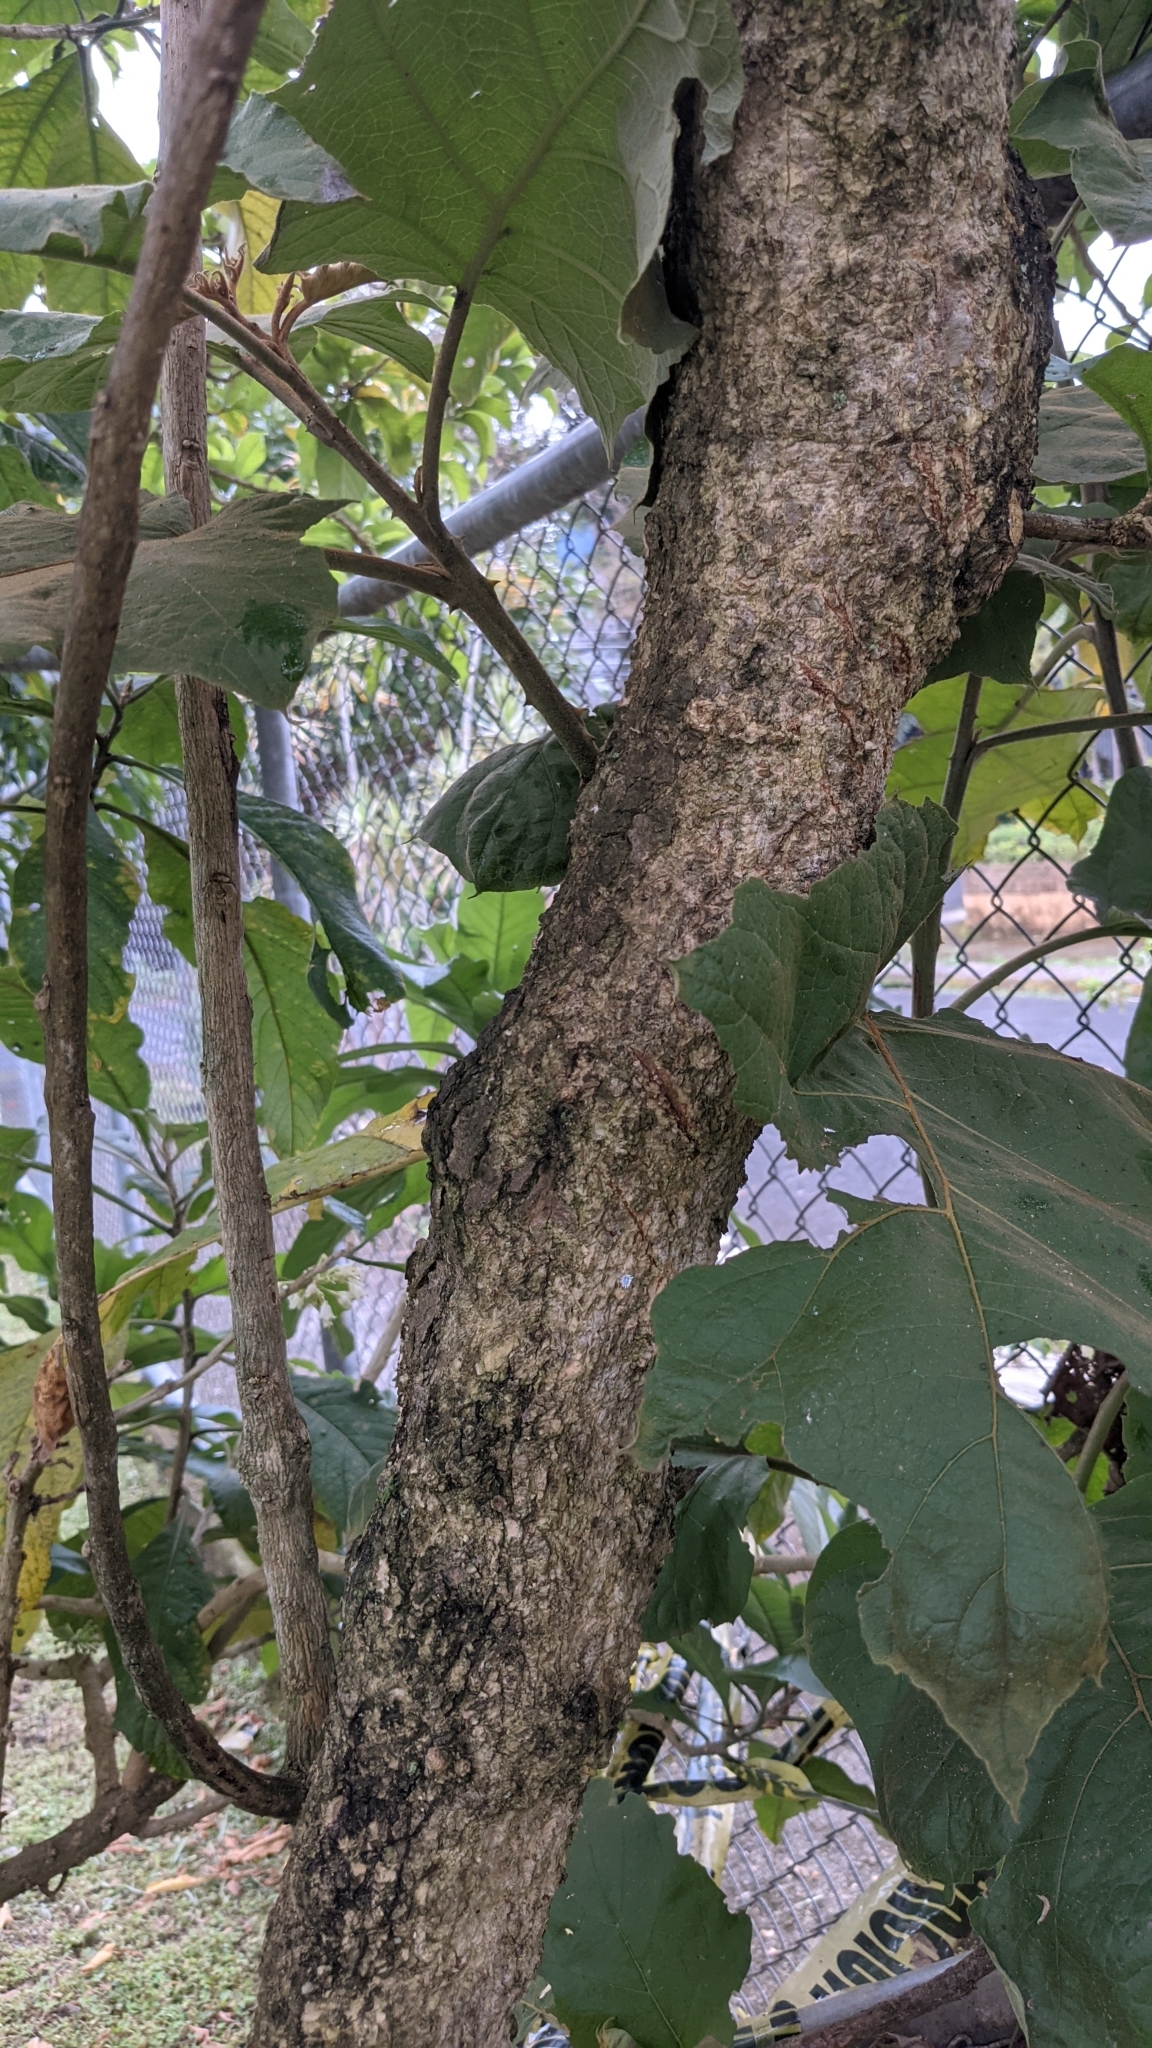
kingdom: Plantae
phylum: Tracheophyta
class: Magnoliopsida
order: Solanales
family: Solanaceae
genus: Iochroma
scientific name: Iochroma arborescens
